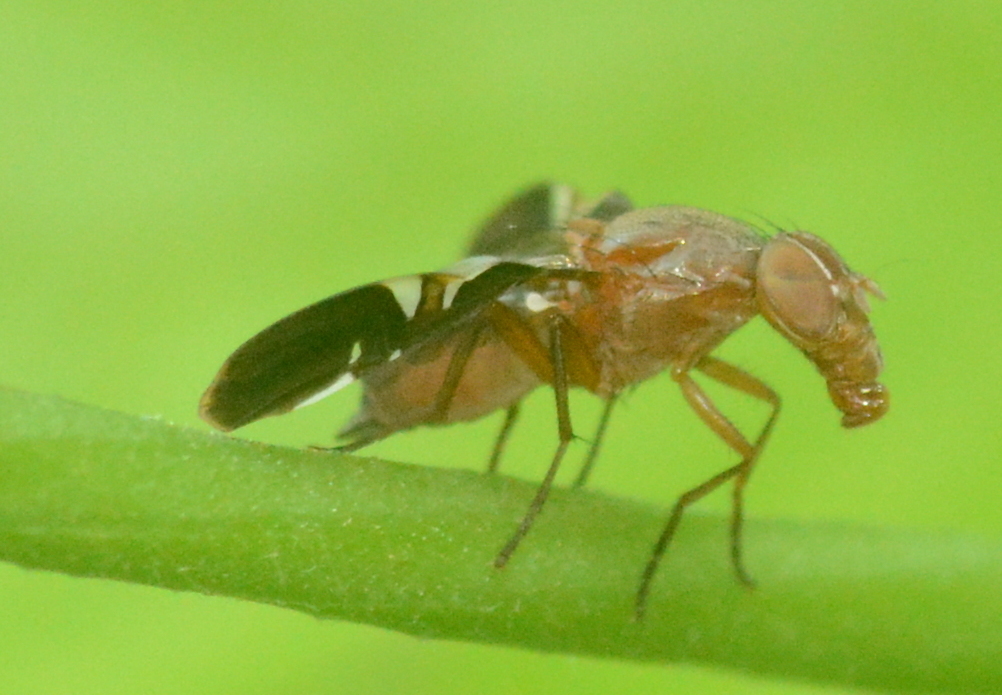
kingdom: Animalia
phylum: Arthropoda
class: Insecta
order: Diptera
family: Ulidiidae
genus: Delphinia
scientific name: Delphinia picta
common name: Common picture-winged fly
